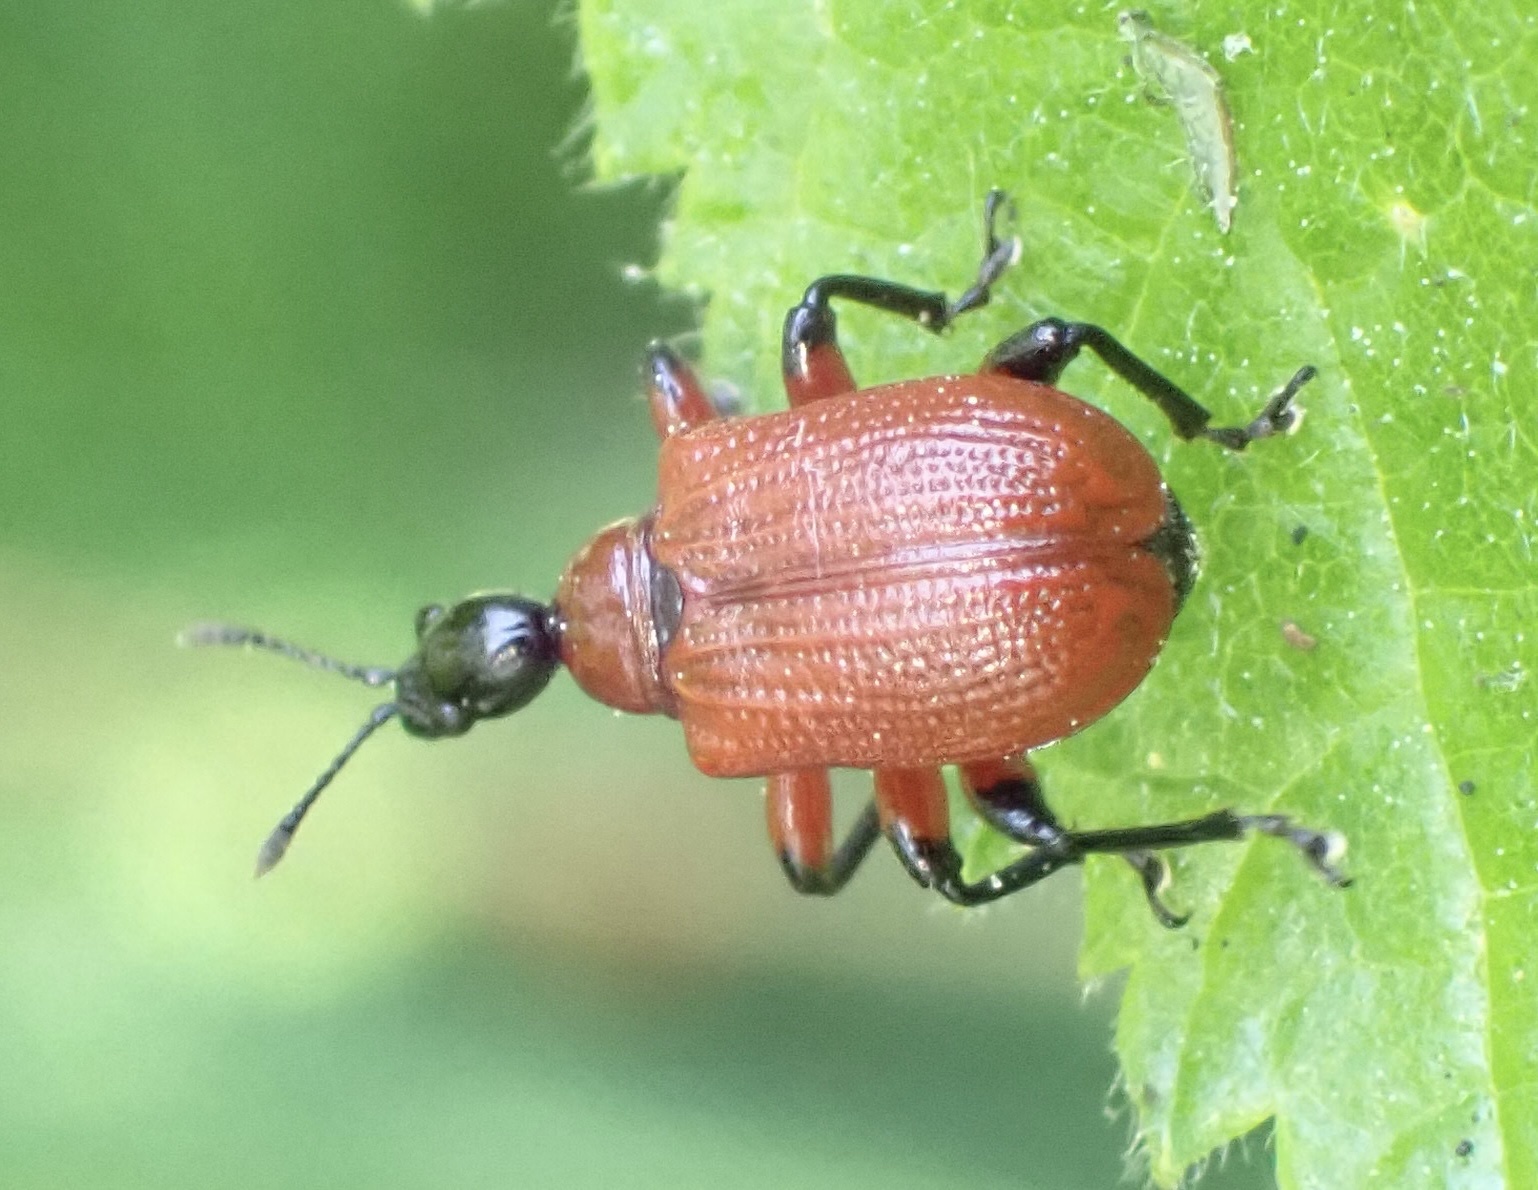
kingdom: Animalia
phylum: Arthropoda
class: Insecta
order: Coleoptera
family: Attelabidae
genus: Apoderus
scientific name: Apoderus coryli
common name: Hazel leaf roller
